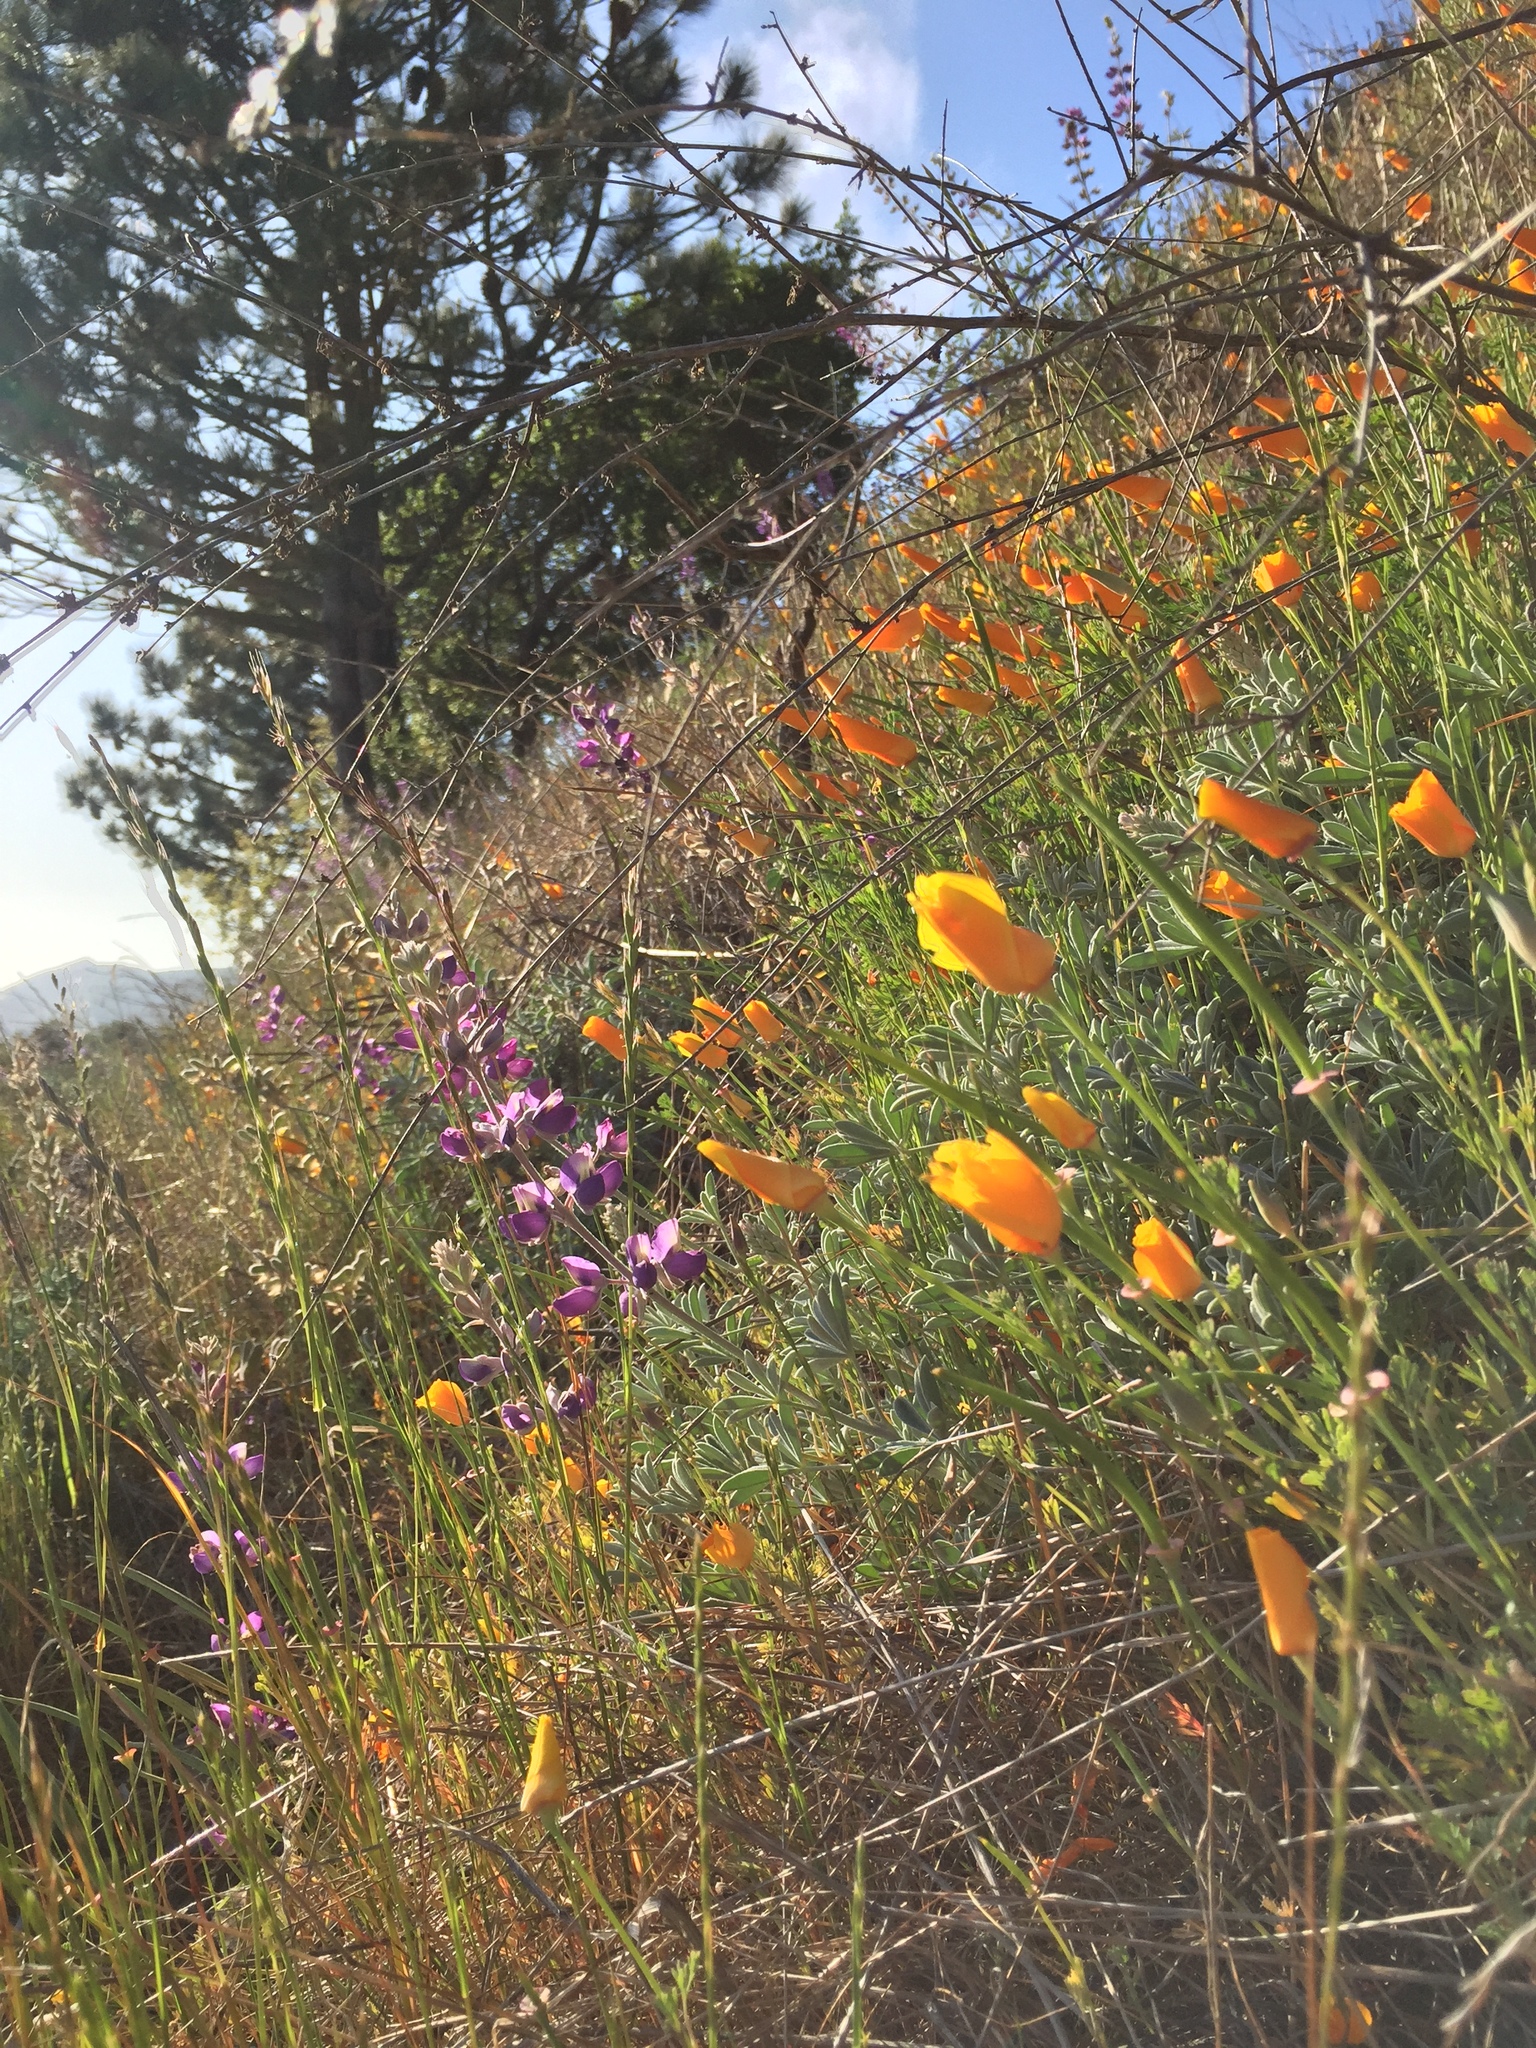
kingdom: Plantae
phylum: Tracheophyta
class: Magnoliopsida
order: Ranunculales
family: Papaveraceae
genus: Eschscholzia
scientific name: Eschscholzia californica
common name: California poppy
